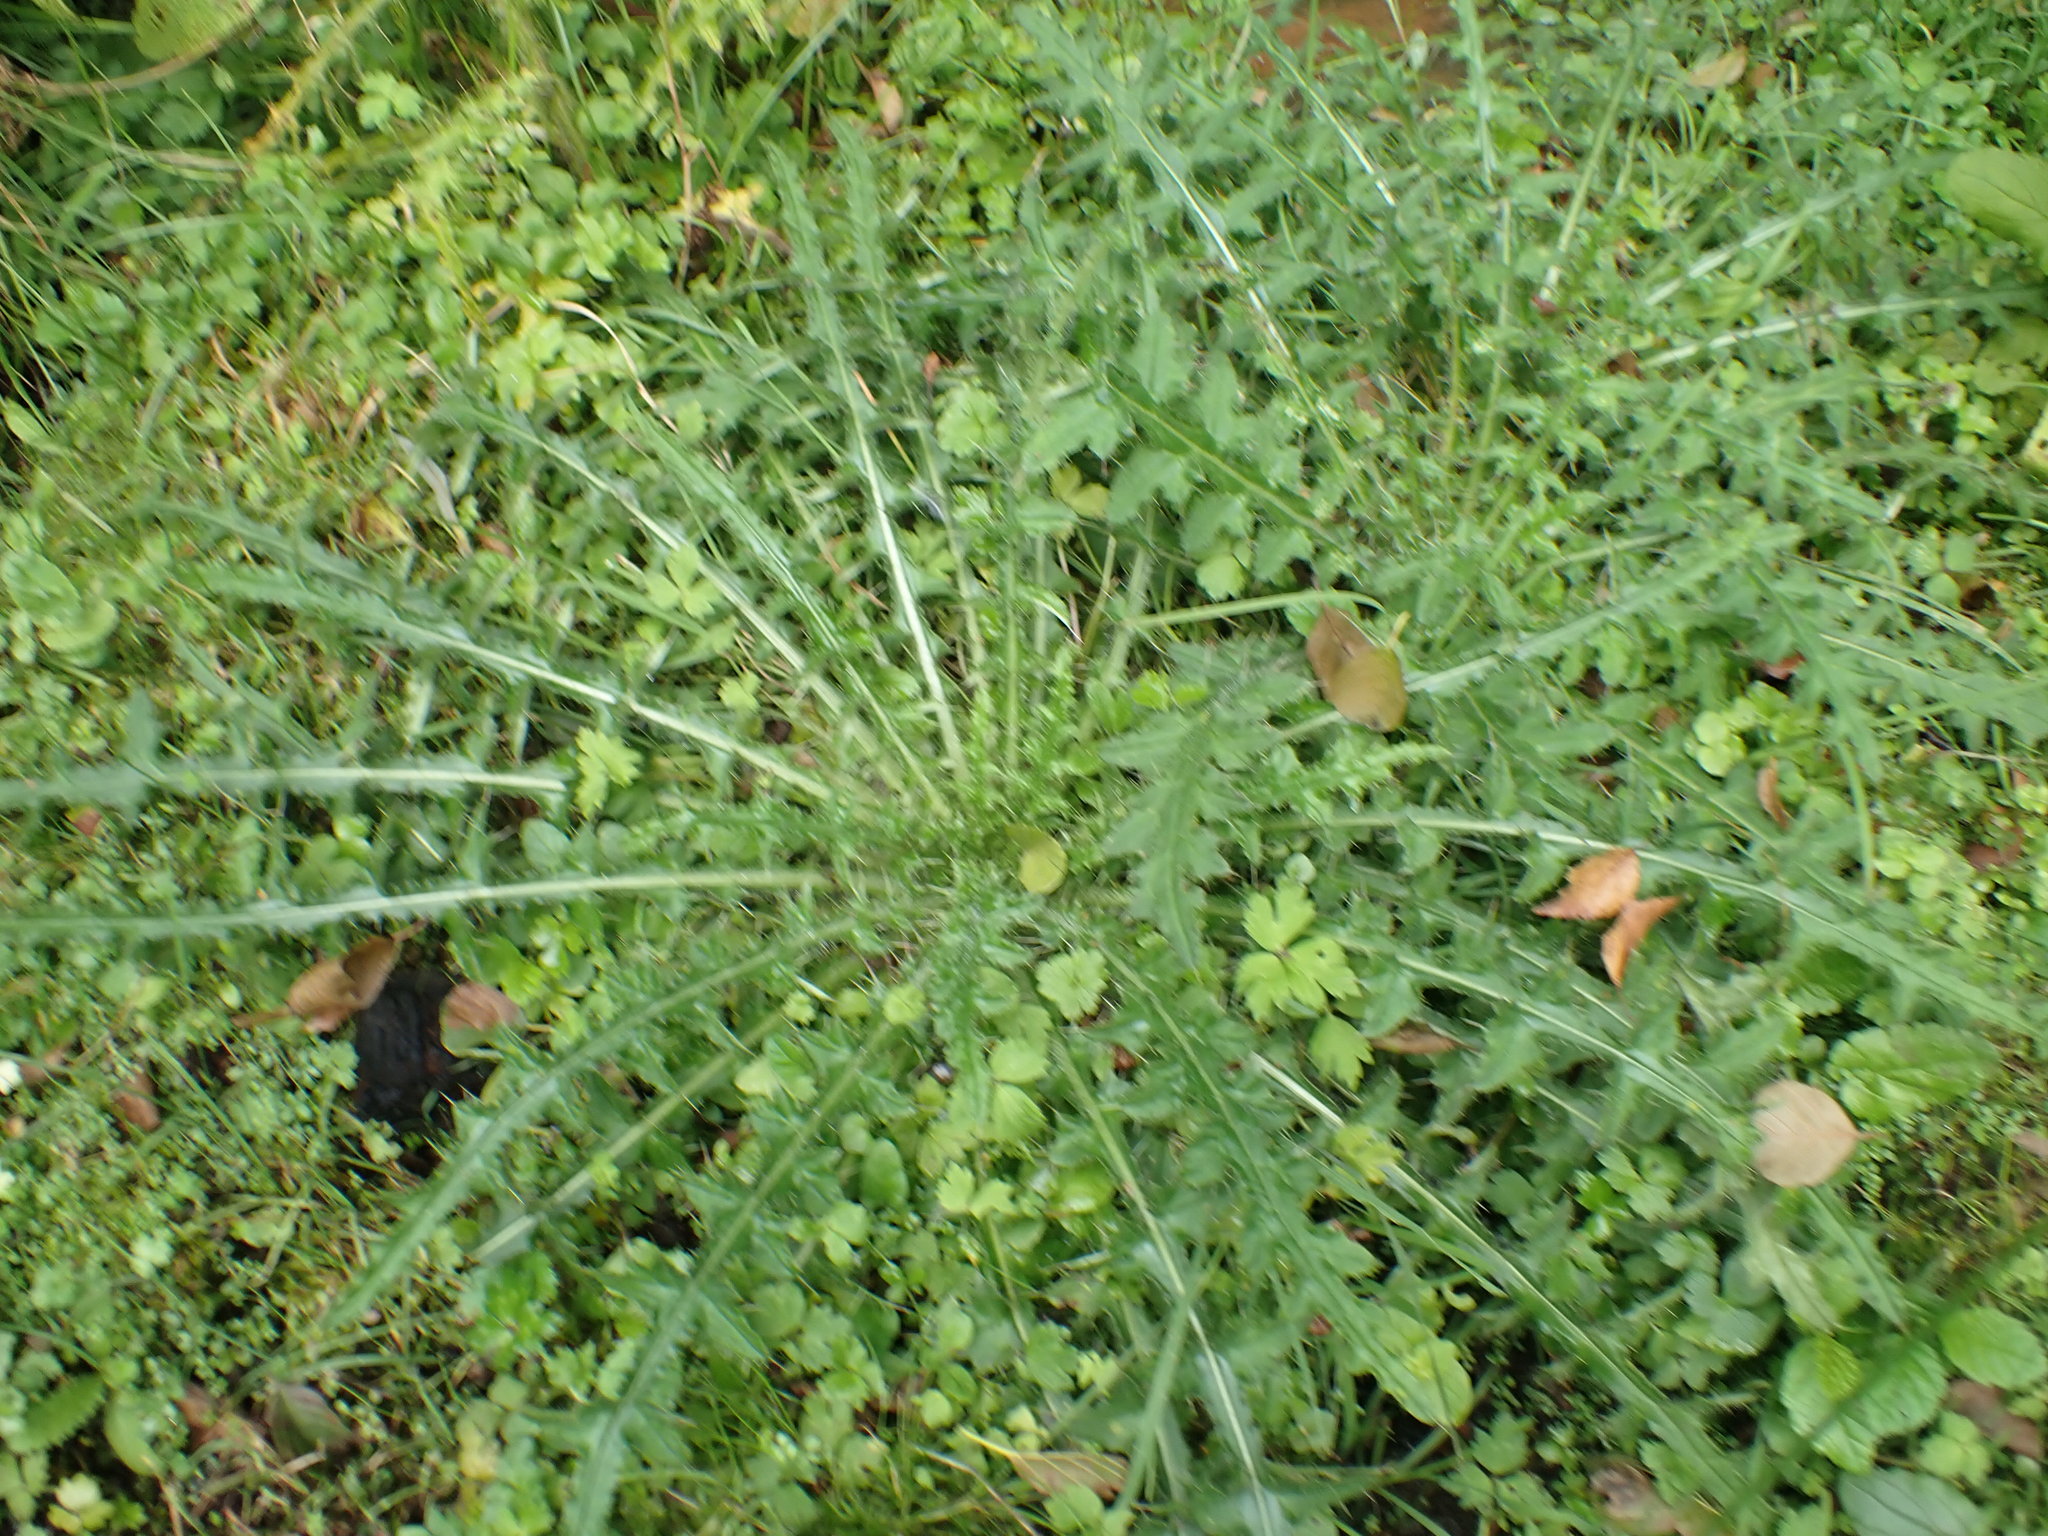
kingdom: Plantae
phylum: Tracheophyta
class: Magnoliopsida
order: Asterales
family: Asteraceae
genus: Cirsium
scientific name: Cirsium palustre
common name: Marsh thistle
